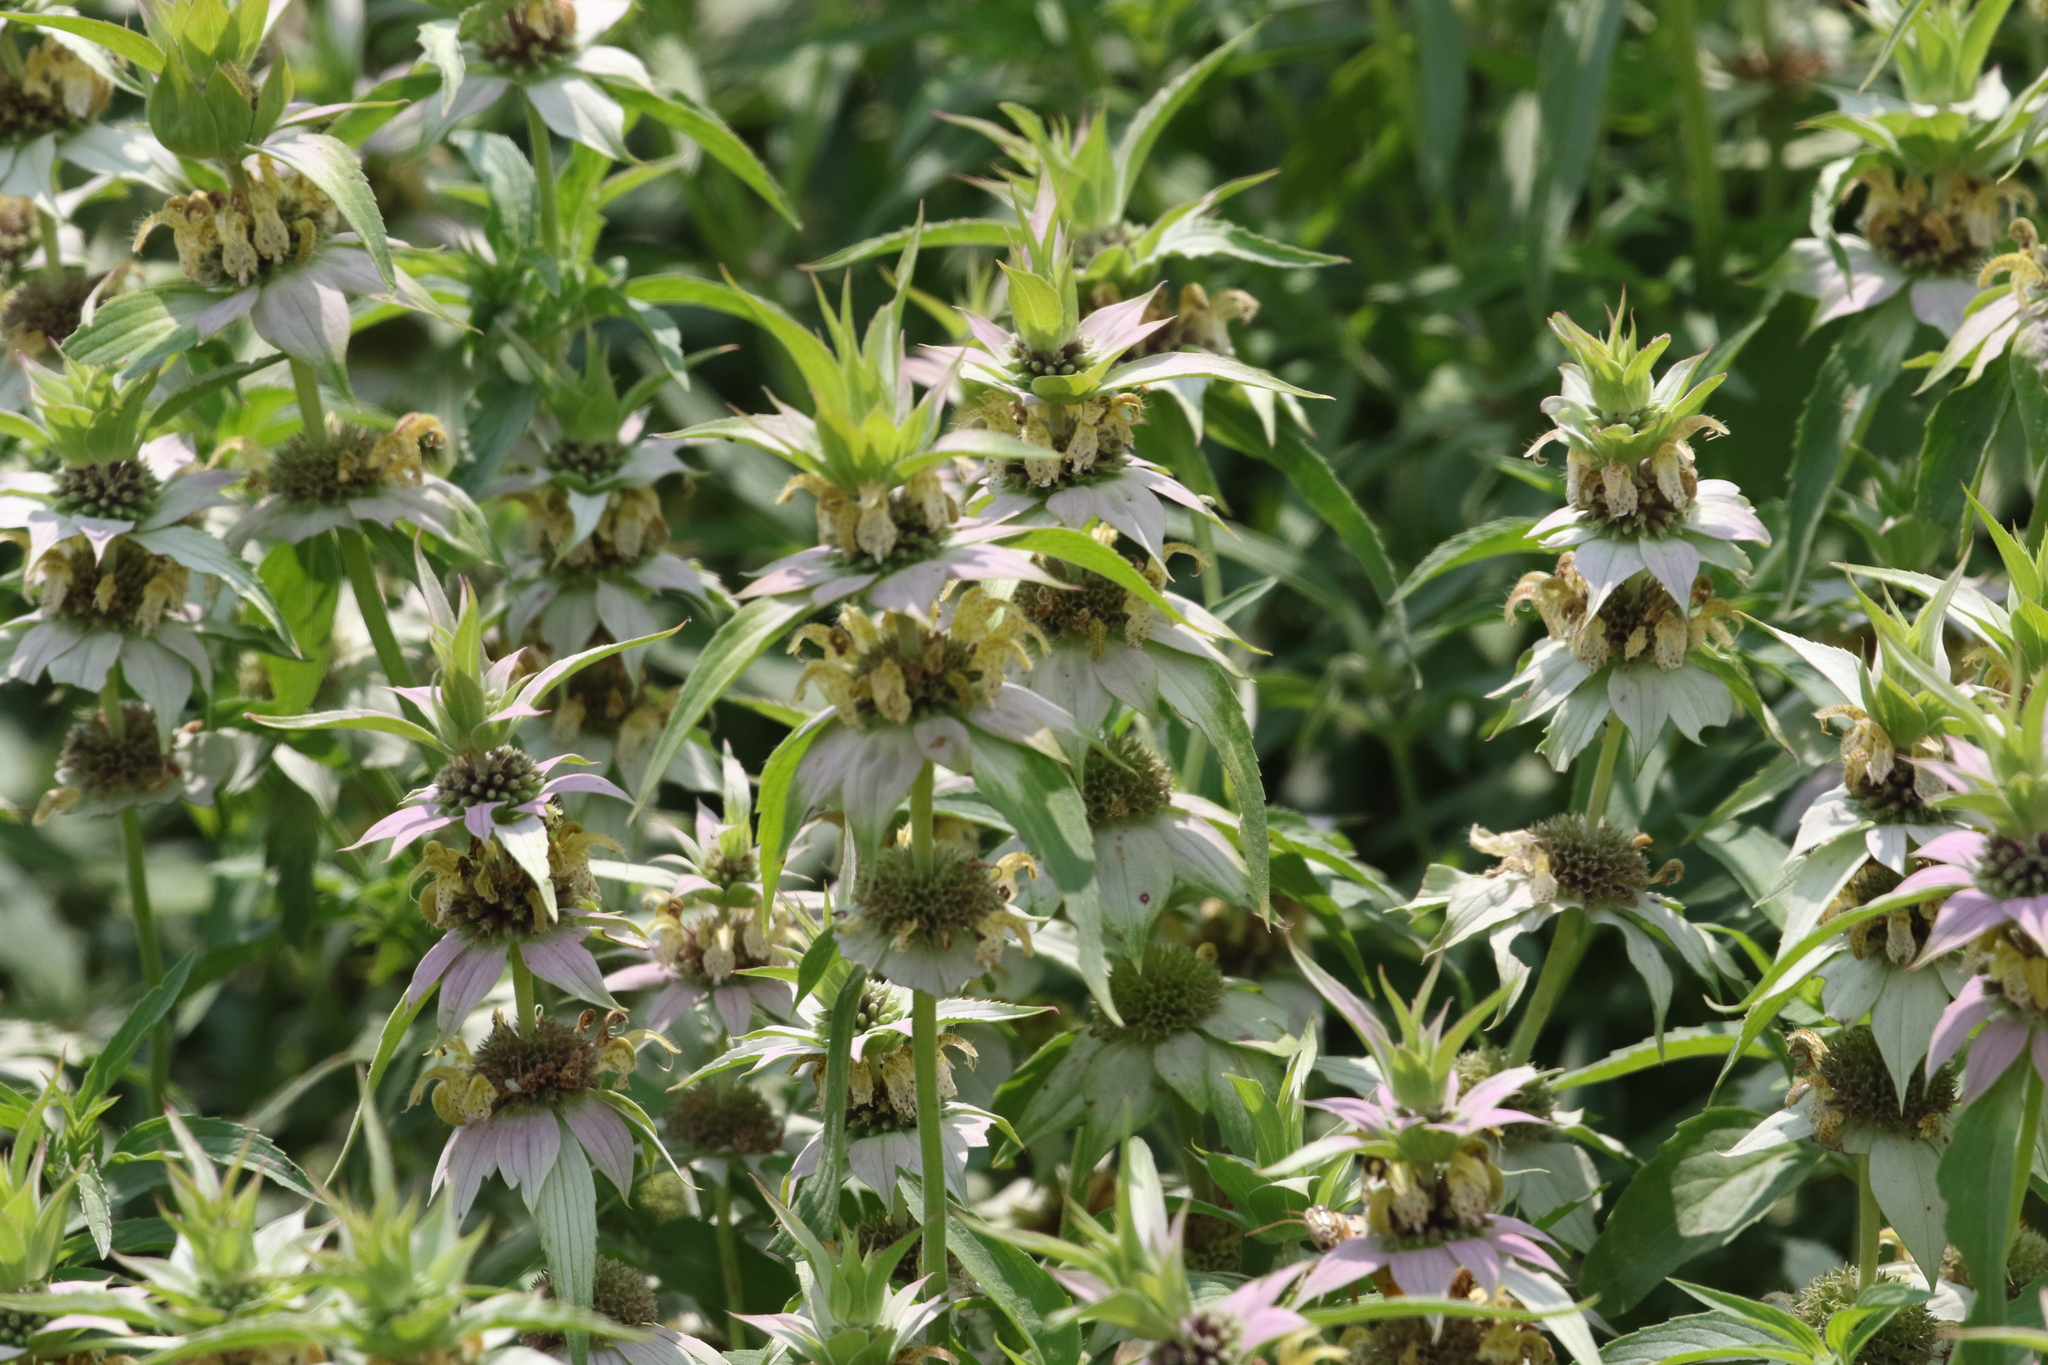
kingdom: Plantae
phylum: Tracheophyta
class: Magnoliopsida
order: Lamiales
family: Lamiaceae
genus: Monarda
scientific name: Monarda punctata
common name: Dotted monarda
